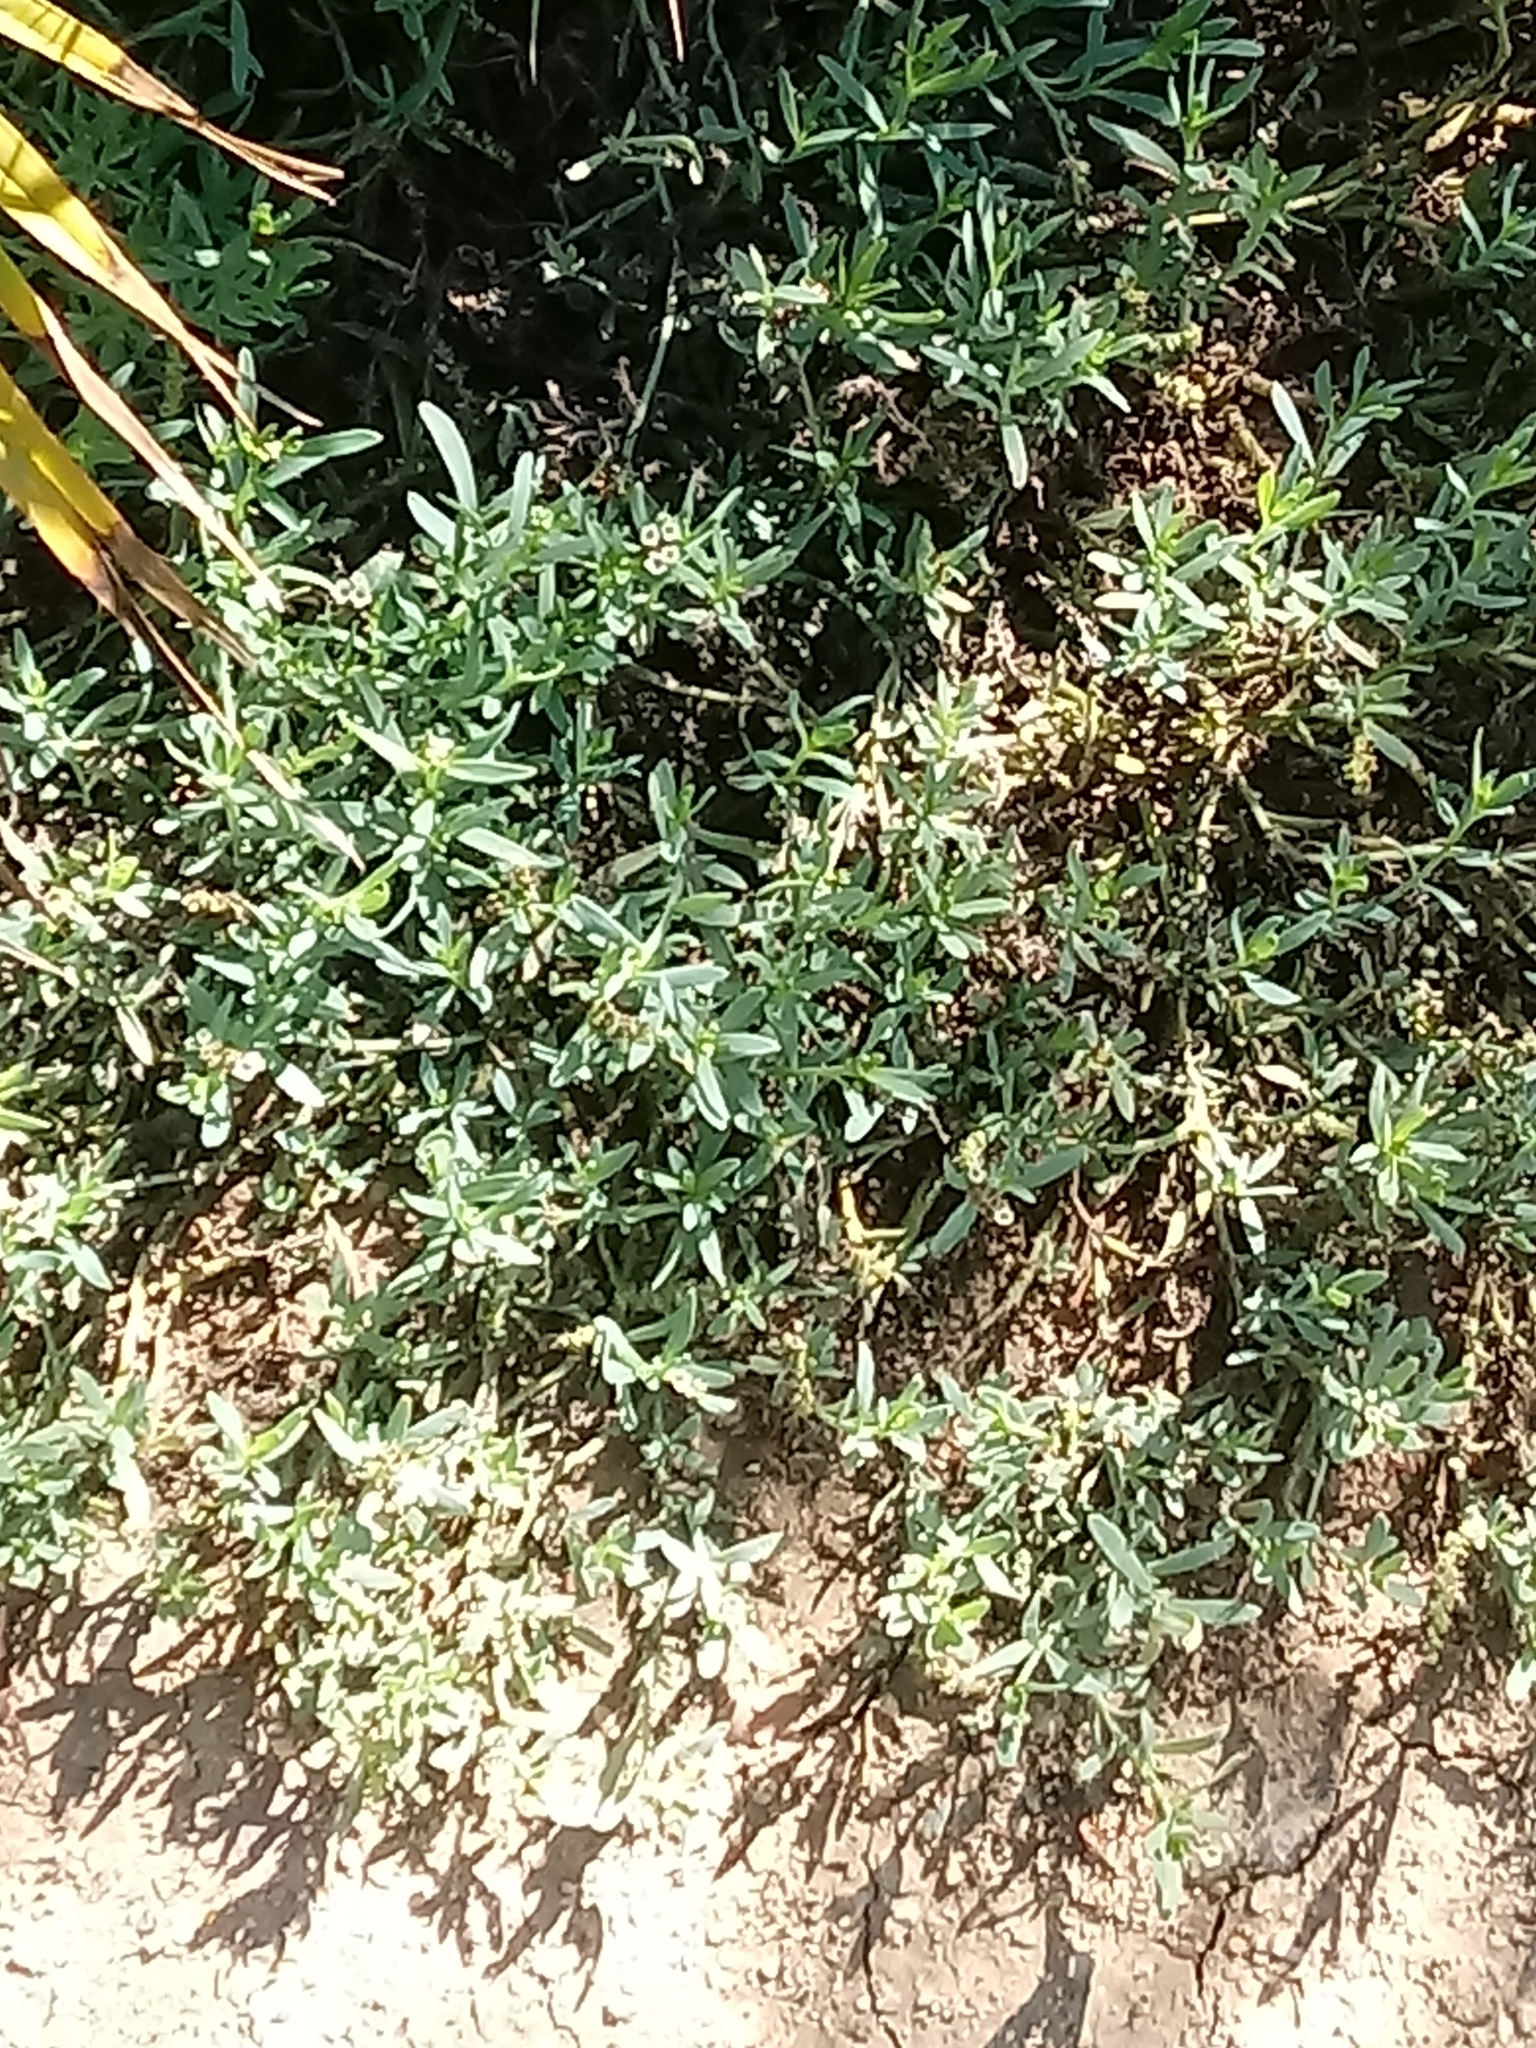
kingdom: Plantae
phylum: Tracheophyta
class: Magnoliopsida
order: Boraginales
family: Heliotropiaceae
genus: Heliotropium
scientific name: Heliotropium curassavicum
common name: Seaside heliotrope
